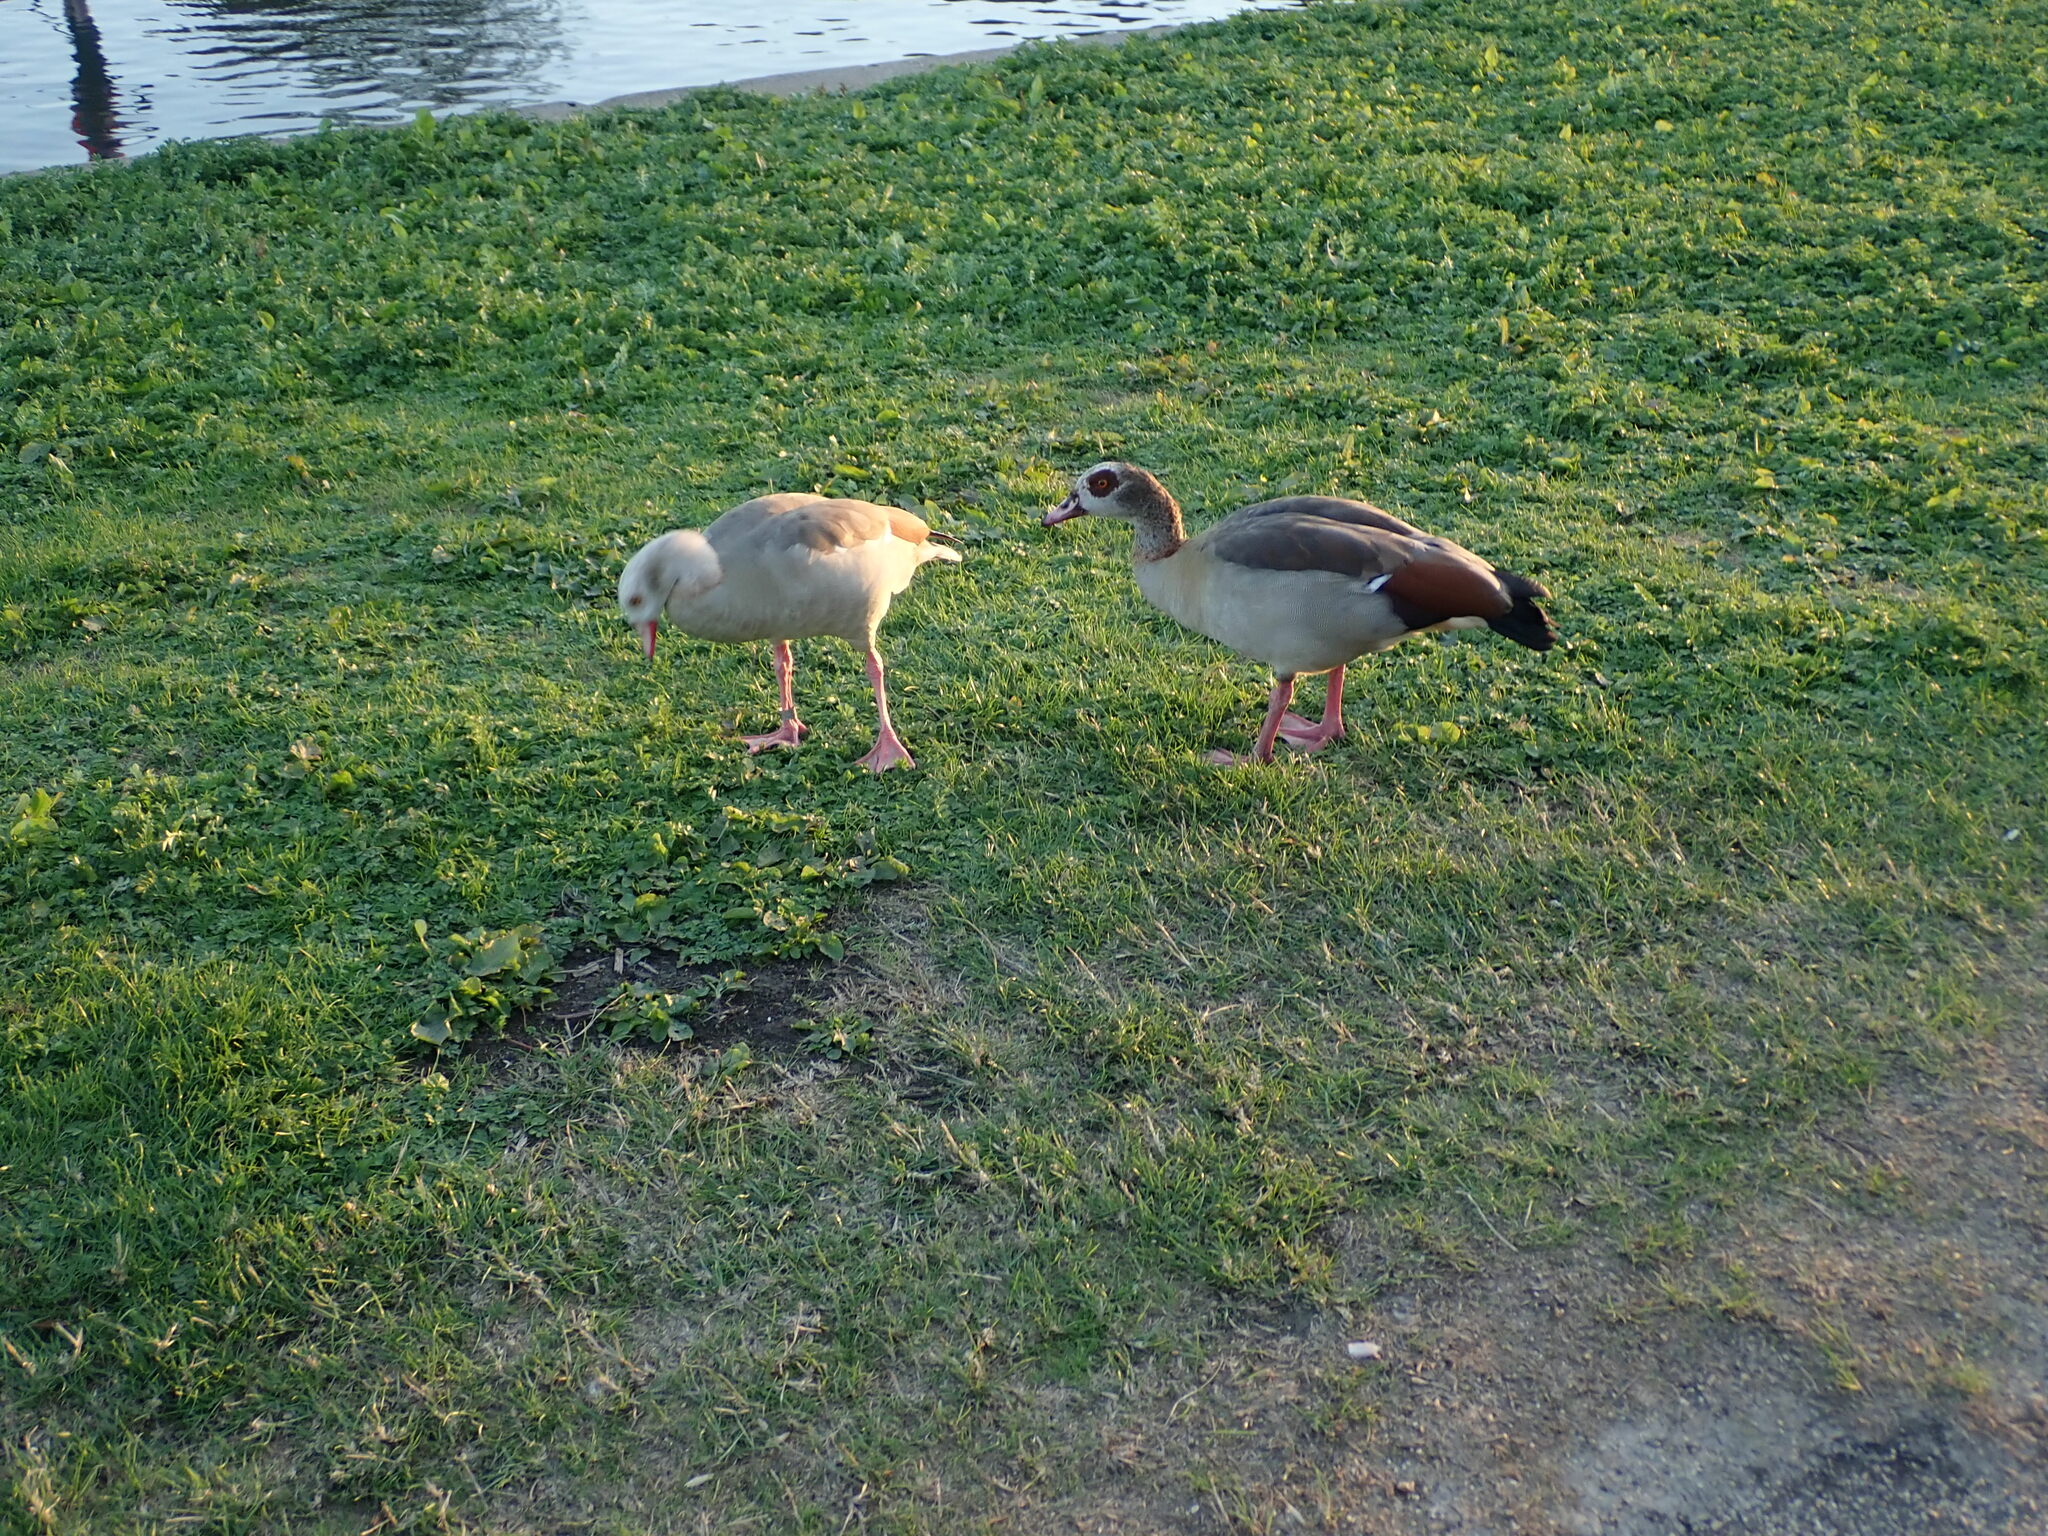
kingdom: Animalia
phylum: Chordata
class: Aves
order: Anseriformes
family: Anatidae
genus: Alopochen
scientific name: Alopochen aegyptiaca
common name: Egyptian goose
